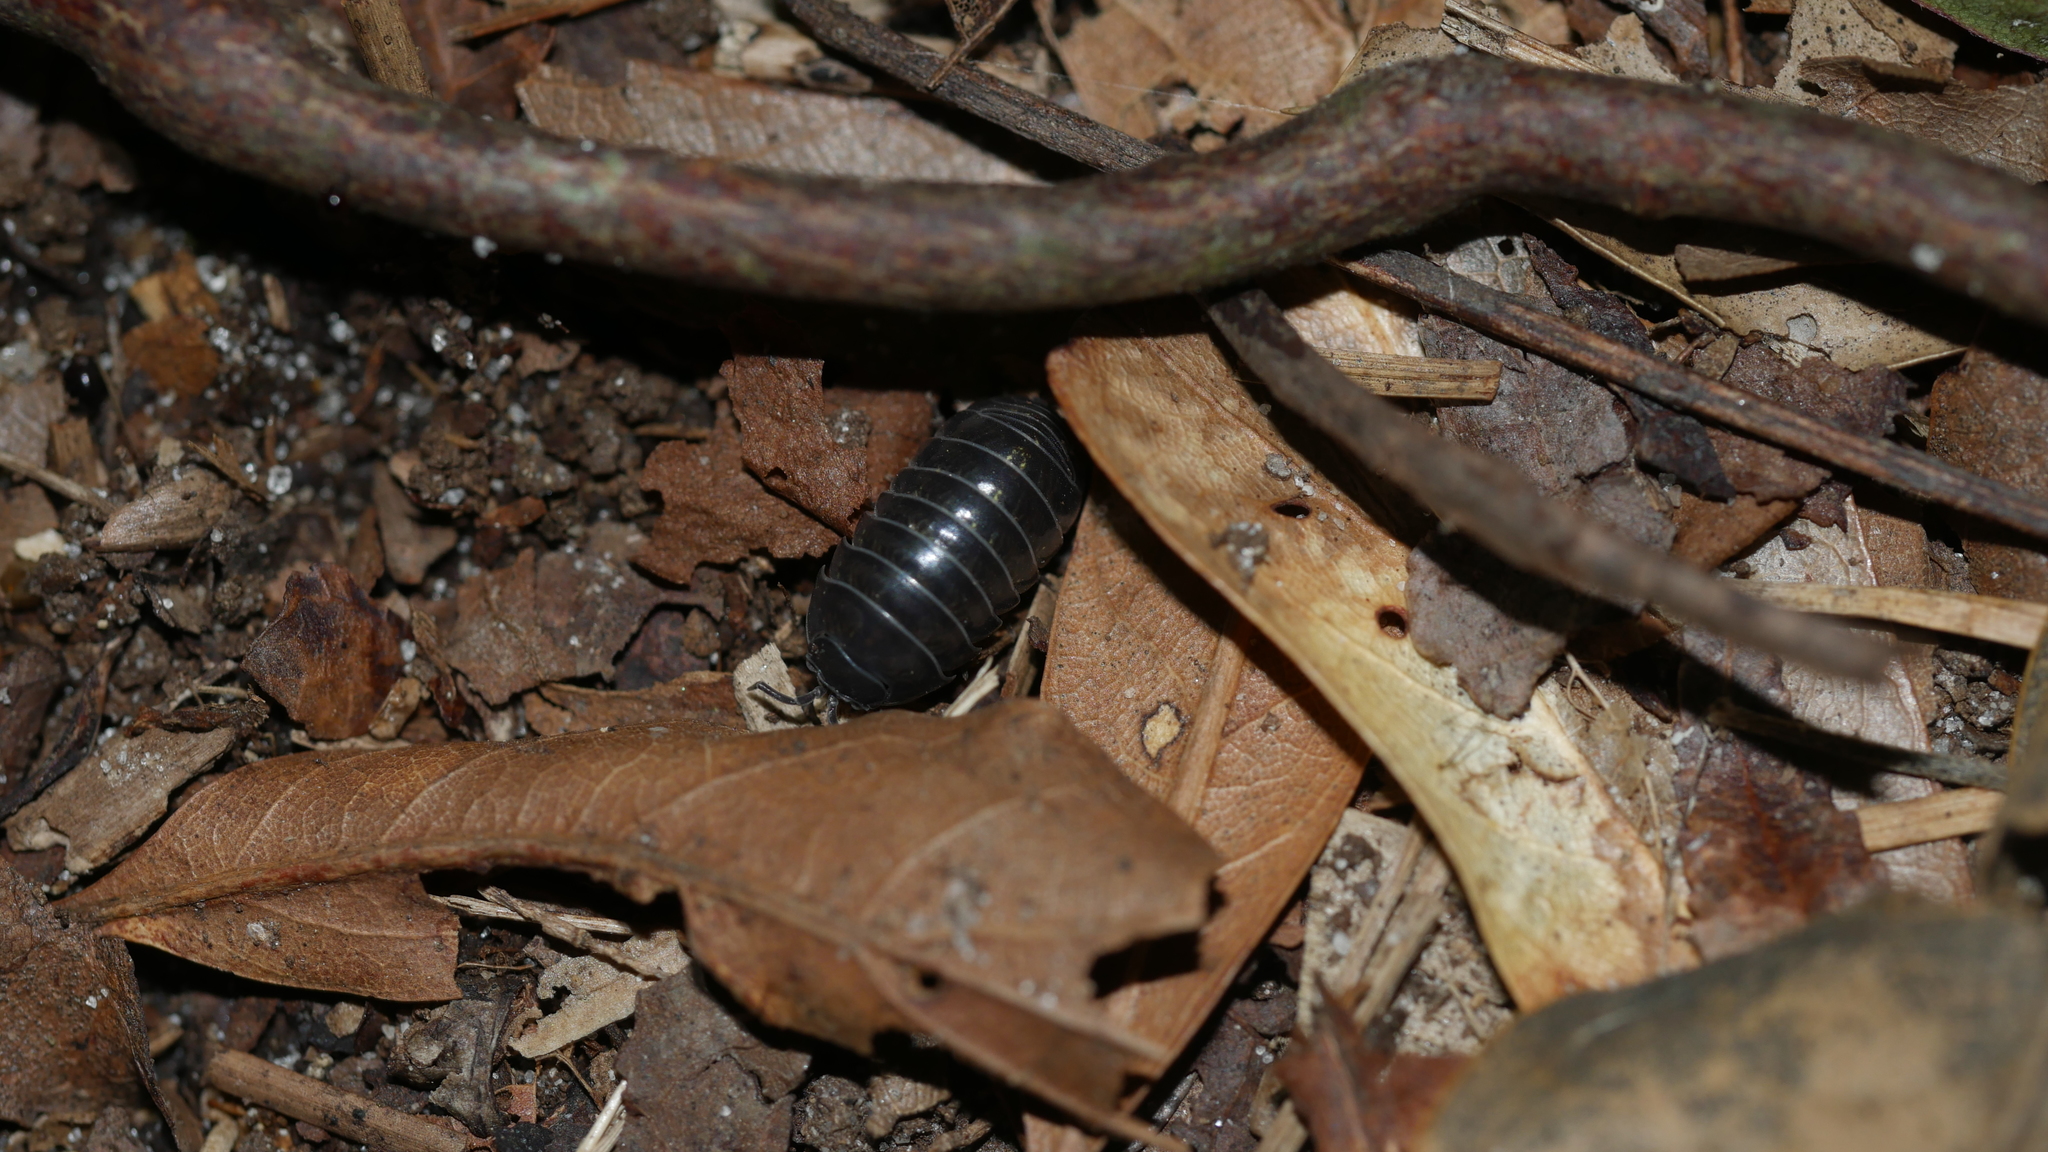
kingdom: Animalia
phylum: Arthropoda
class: Malacostraca
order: Isopoda
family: Armadillidiidae
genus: Armadillidium
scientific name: Armadillidium vulgare
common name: Common pill woodlouse
